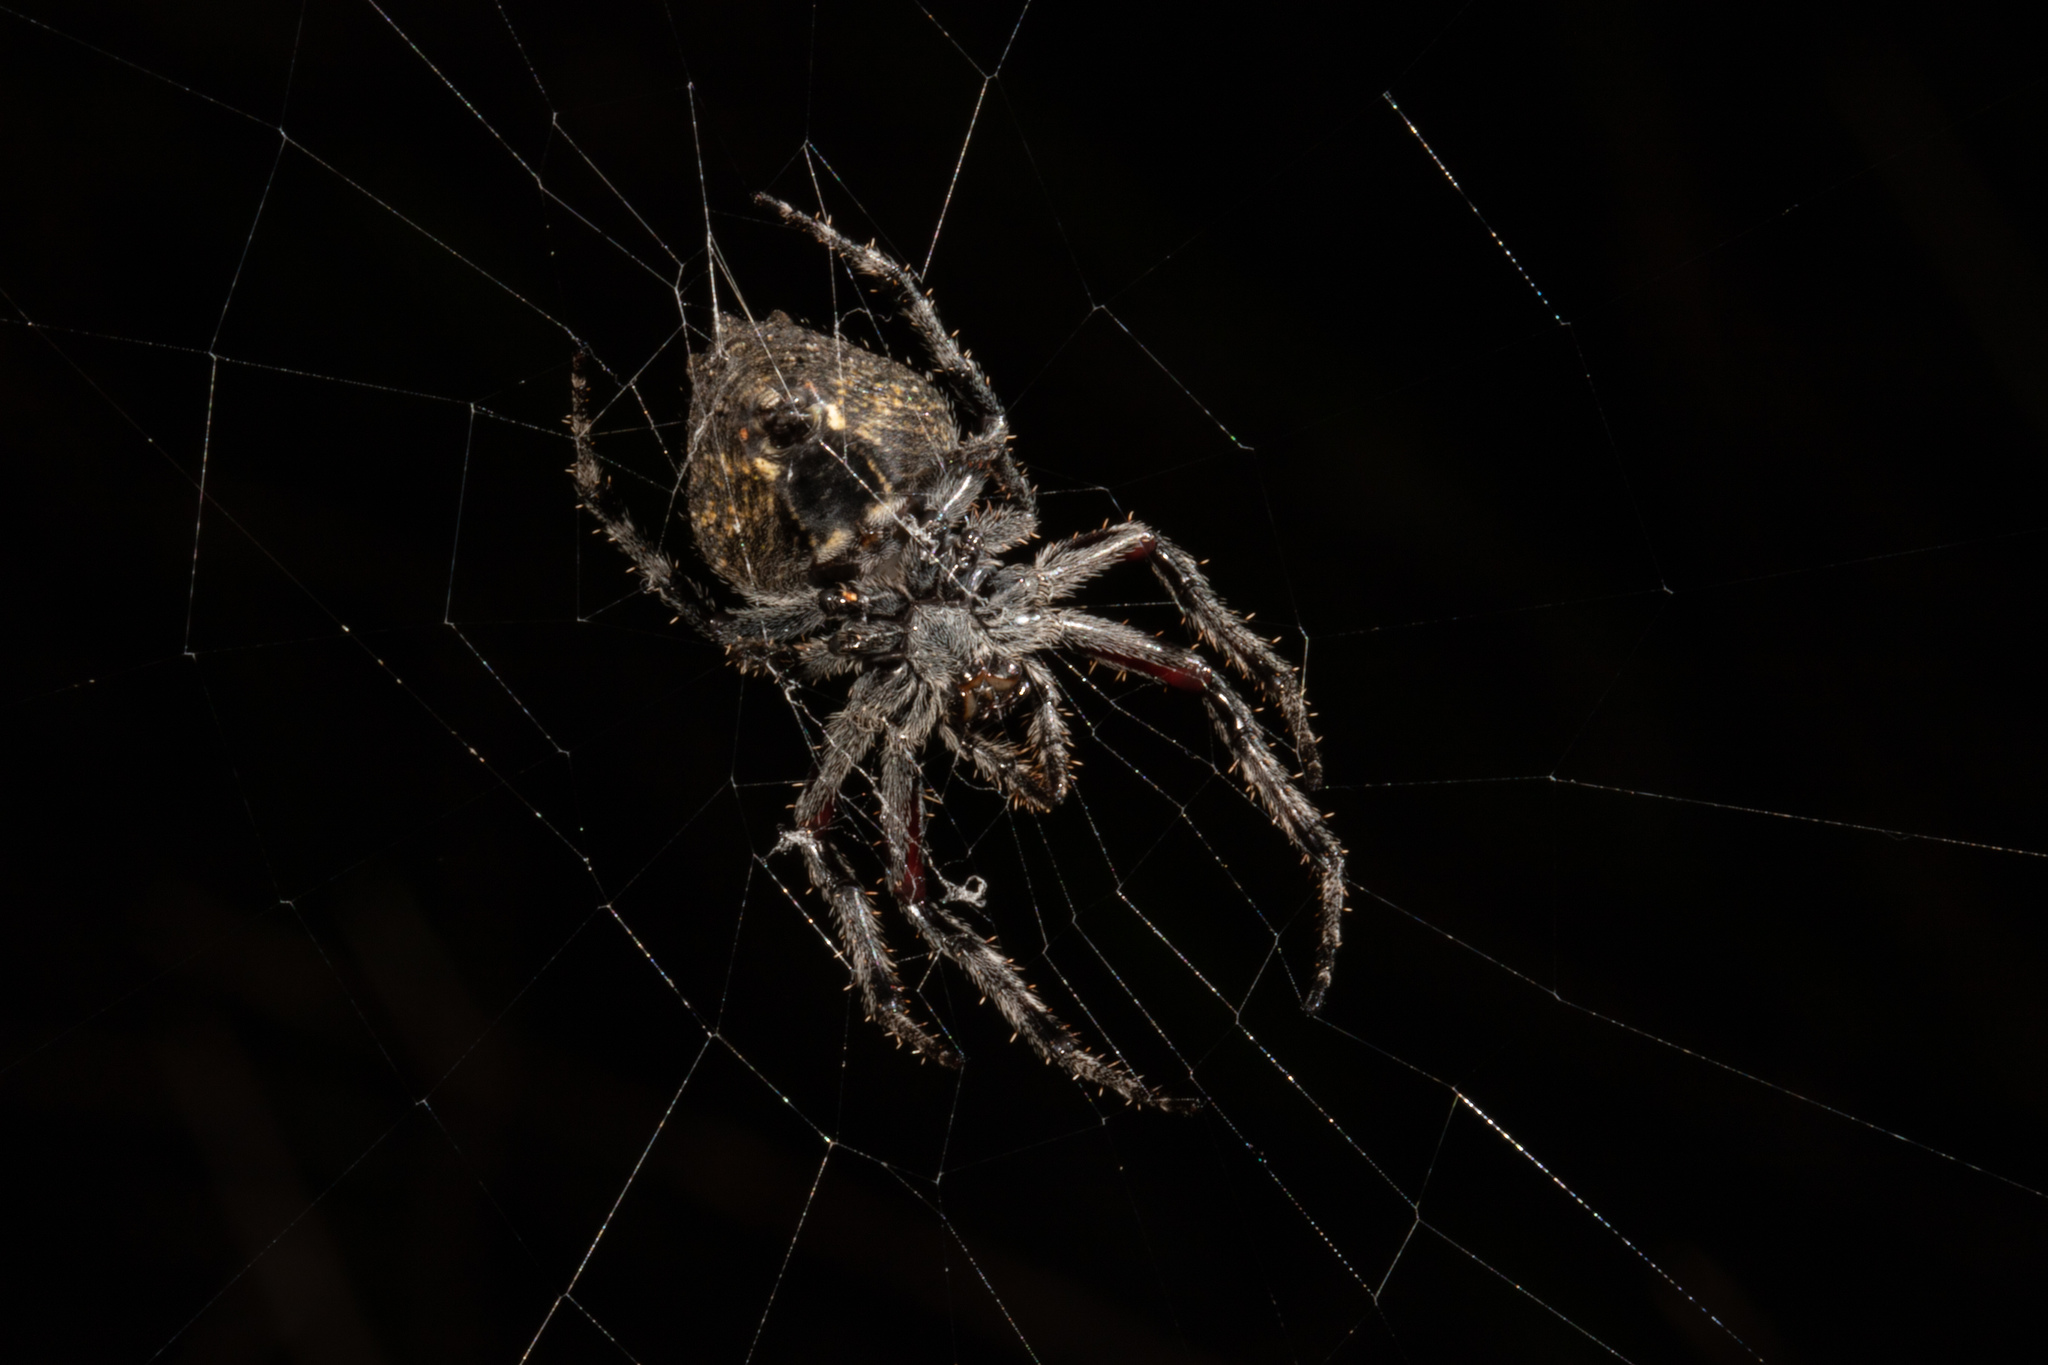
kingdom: Animalia
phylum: Arthropoda
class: Arachnida
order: Araneae
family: Araneidae
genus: Eriophora
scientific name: Eriophora pustulosa
